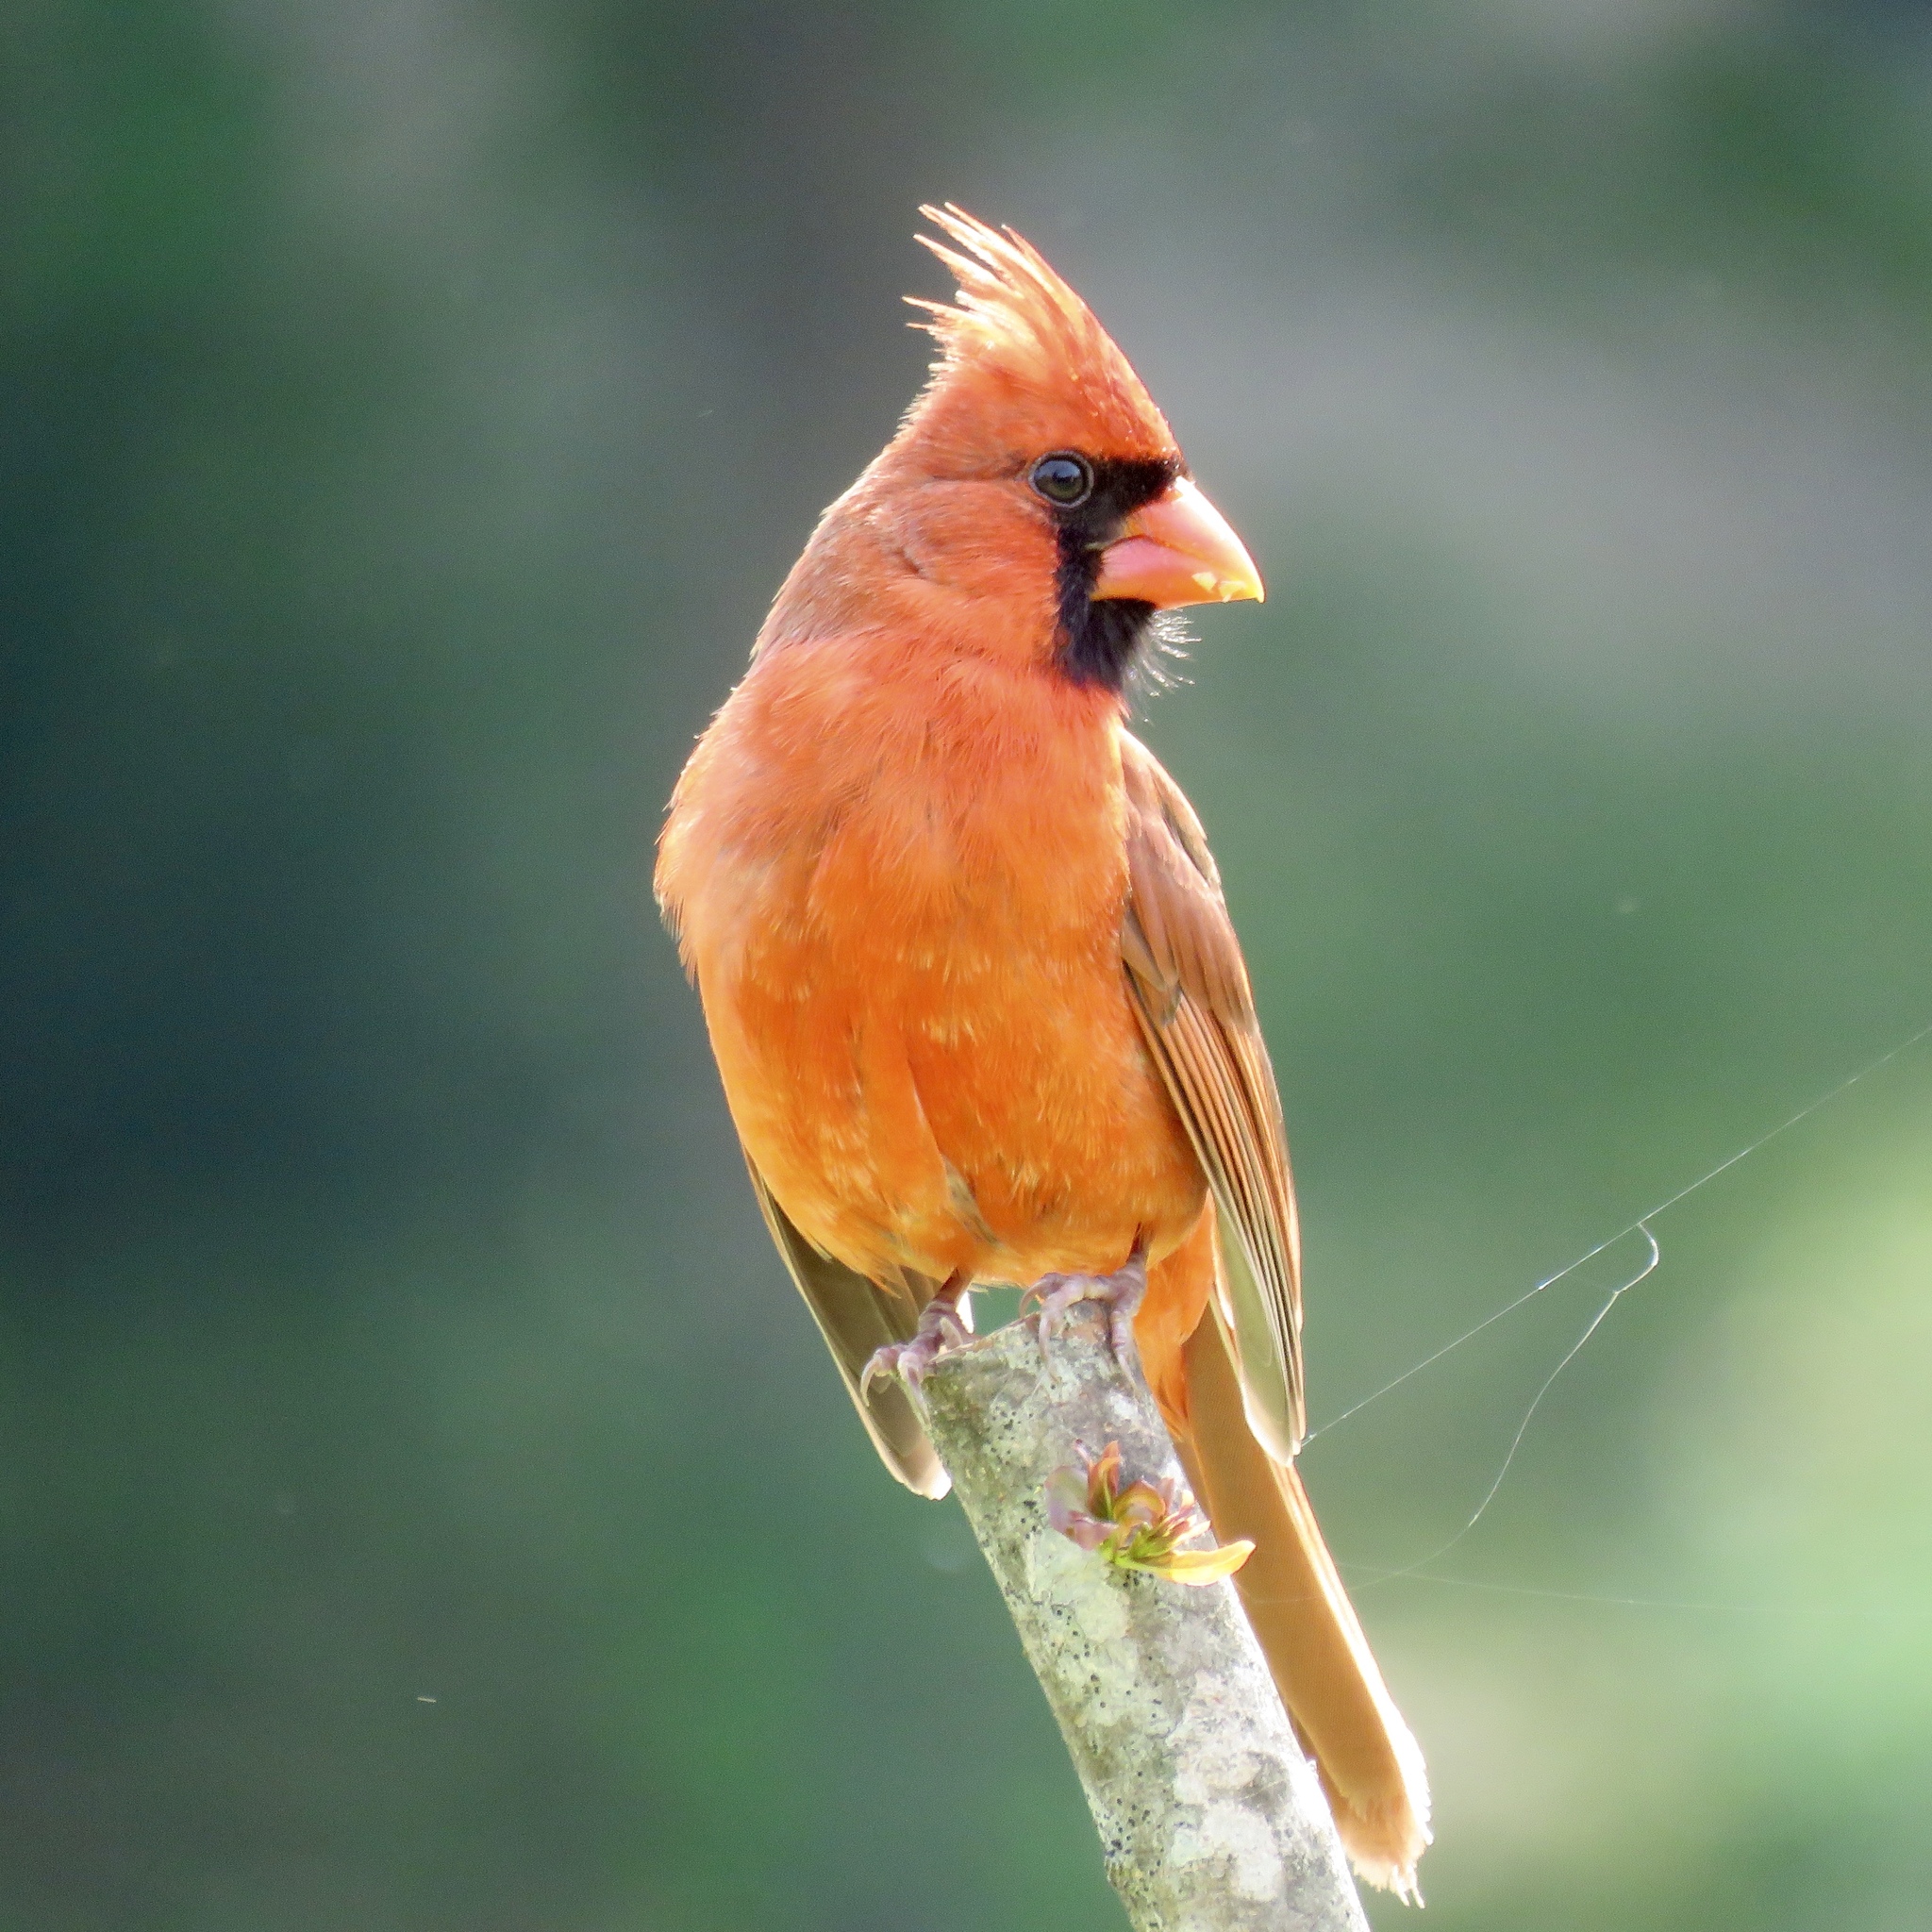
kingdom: Animalia
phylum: Chordata
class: Aves
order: Passeriformes
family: Cardinalidae
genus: Cardinalis
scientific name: Cardinalis cardinalis
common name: Northern cardinal
